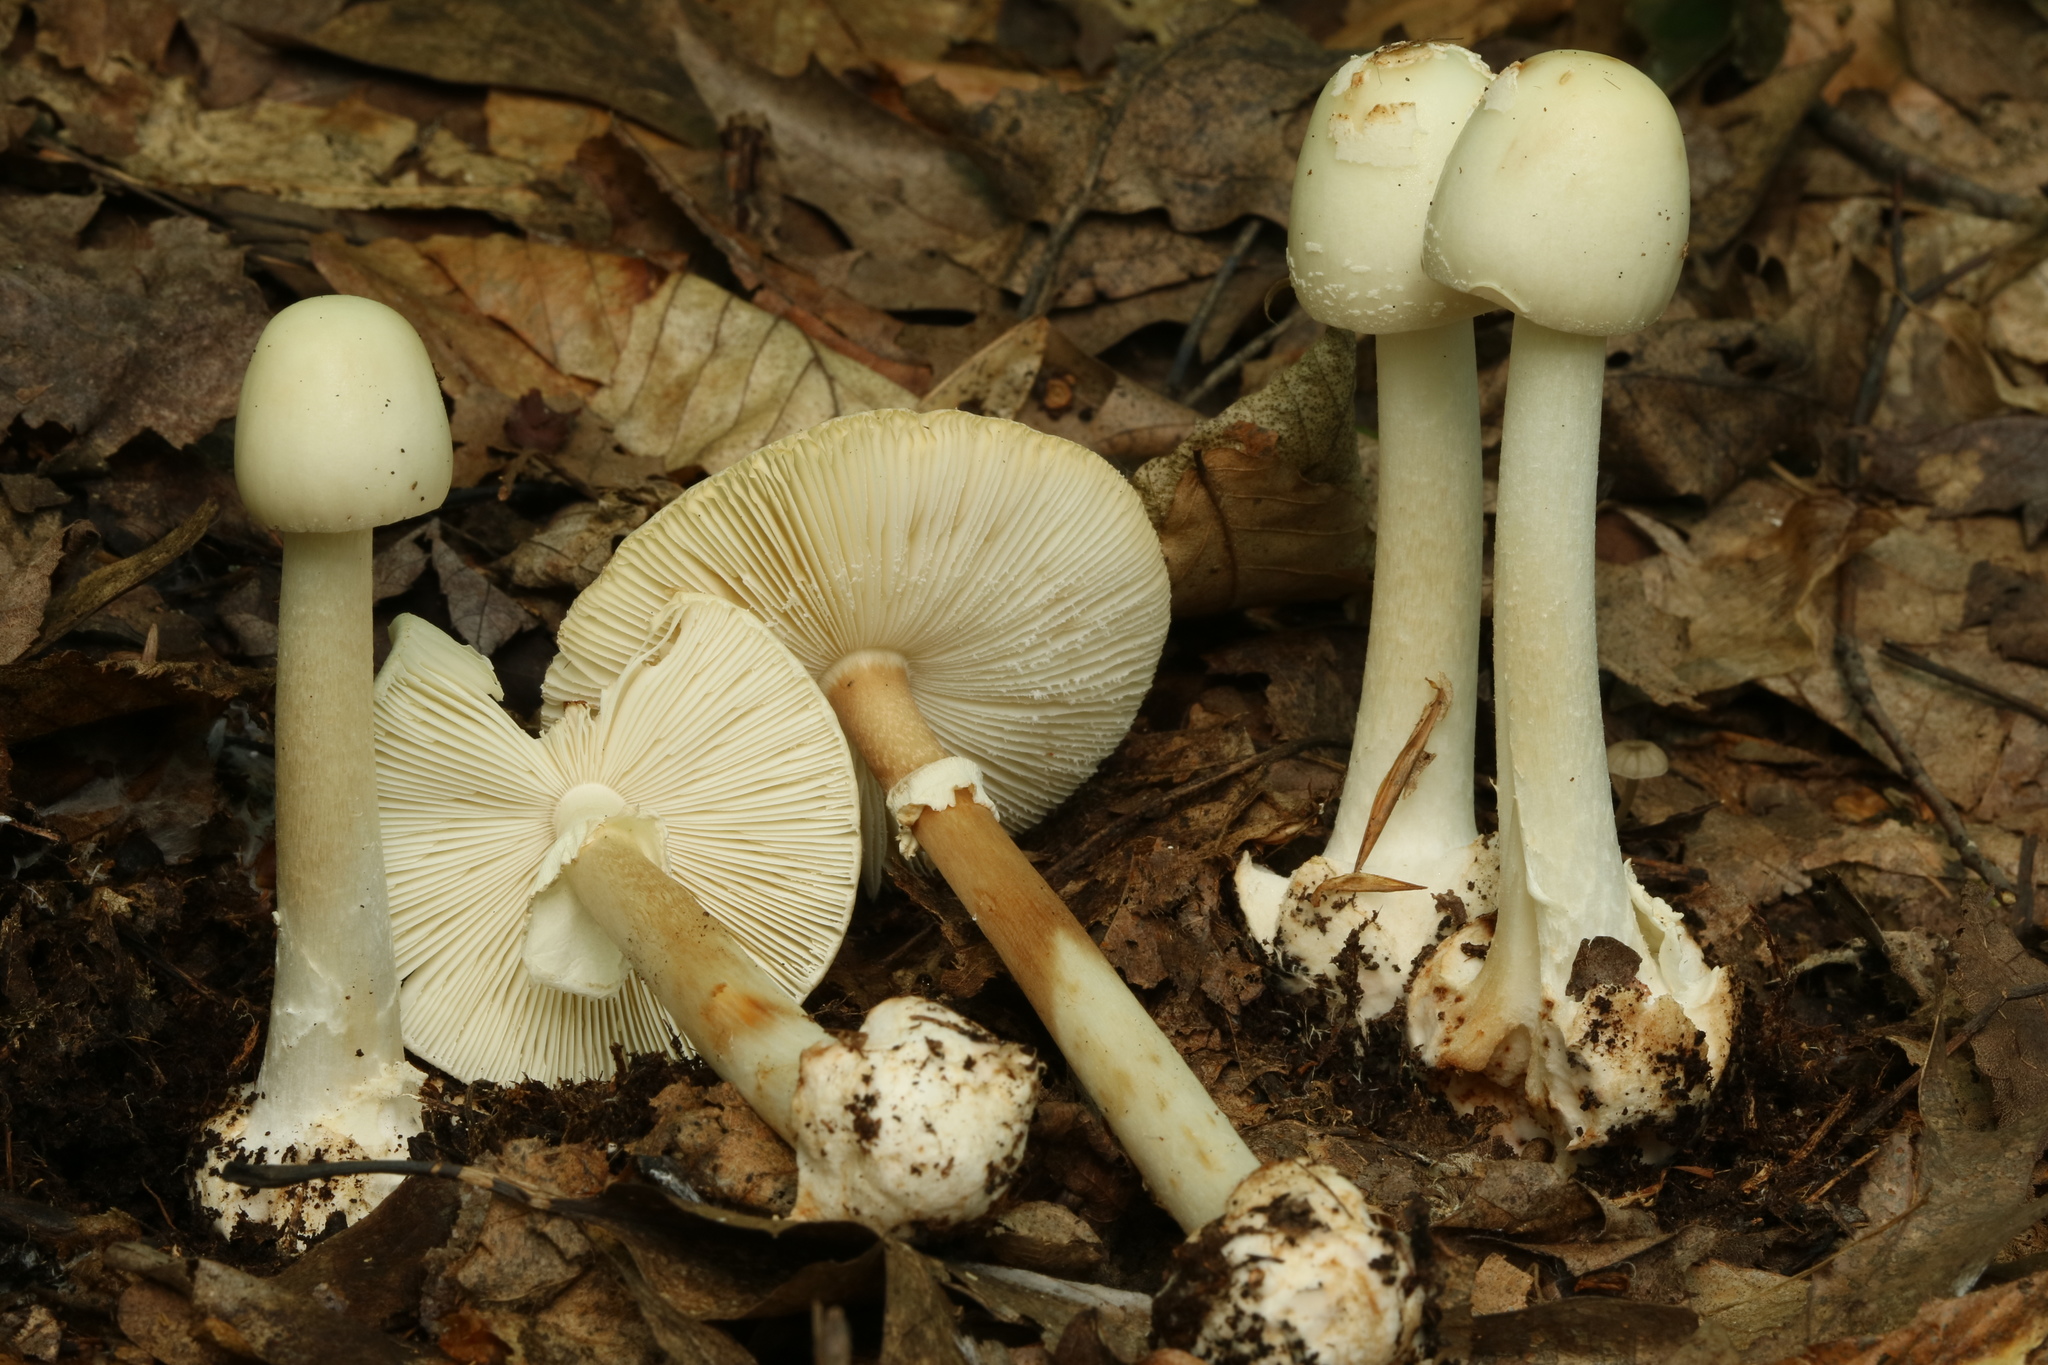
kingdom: Fungi
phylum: Basidiomycota
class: Agaricomycetes
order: Agaricales
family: Amanitaceae
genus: Amanita
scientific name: Amanita aestivalis
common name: White american star-footed amanita
